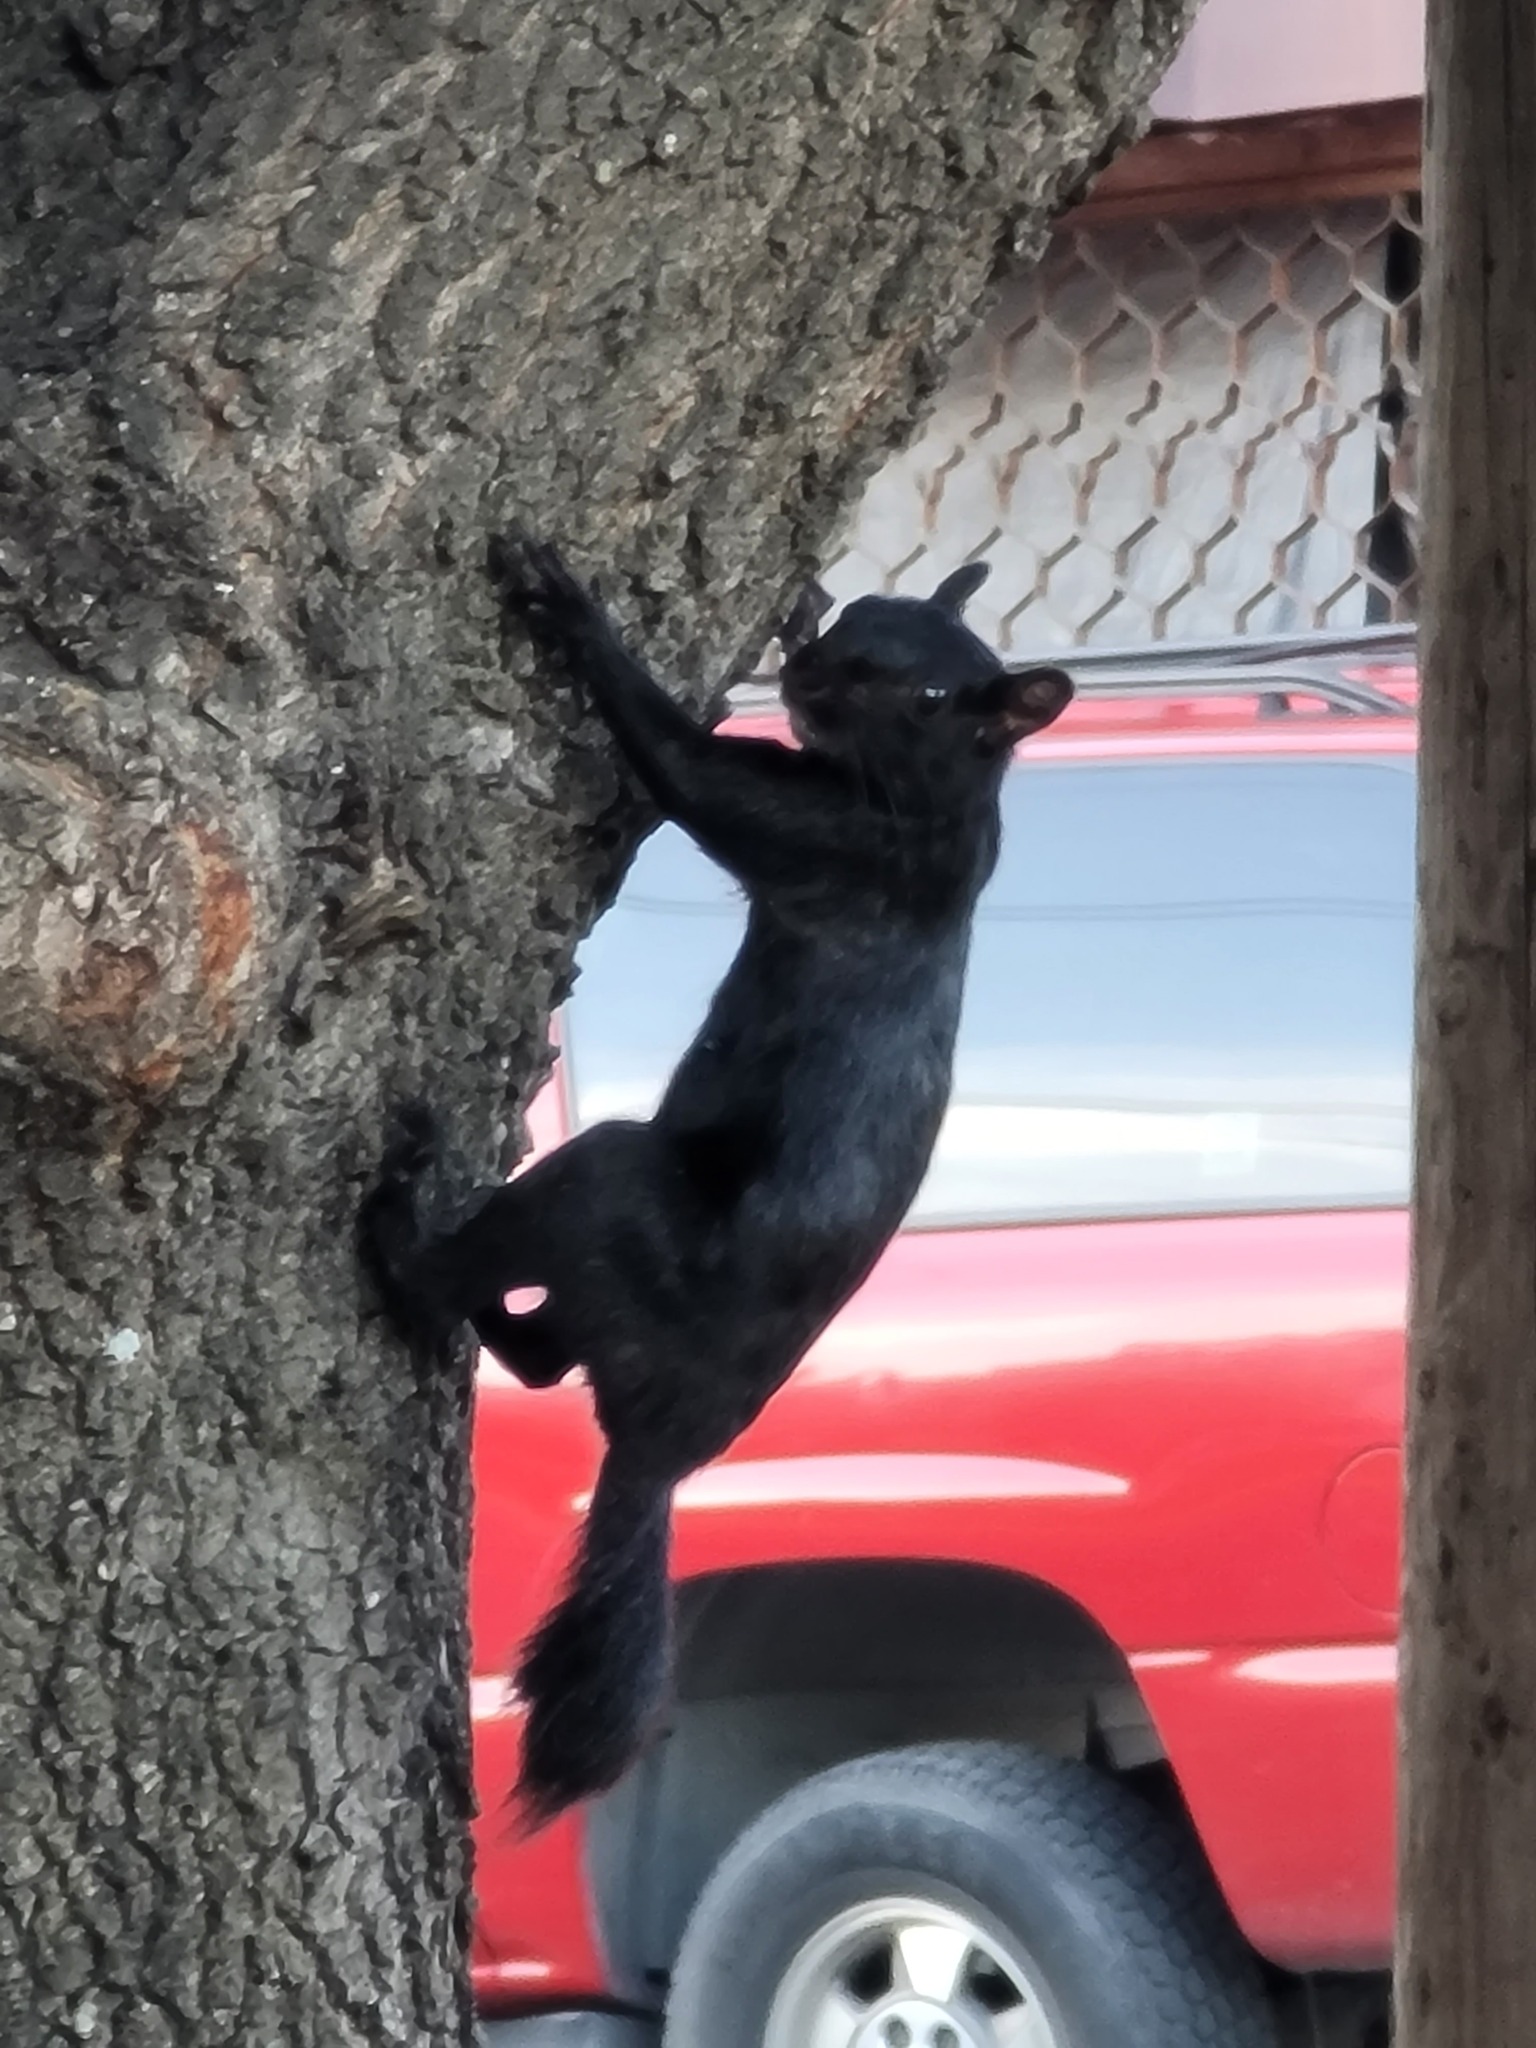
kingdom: Animalia
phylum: Chordata
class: Mammalia
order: Rodentia
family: Sciuridae
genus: Sciurus
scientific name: Sciurus aureogaster
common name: Red-bellied squirrel
